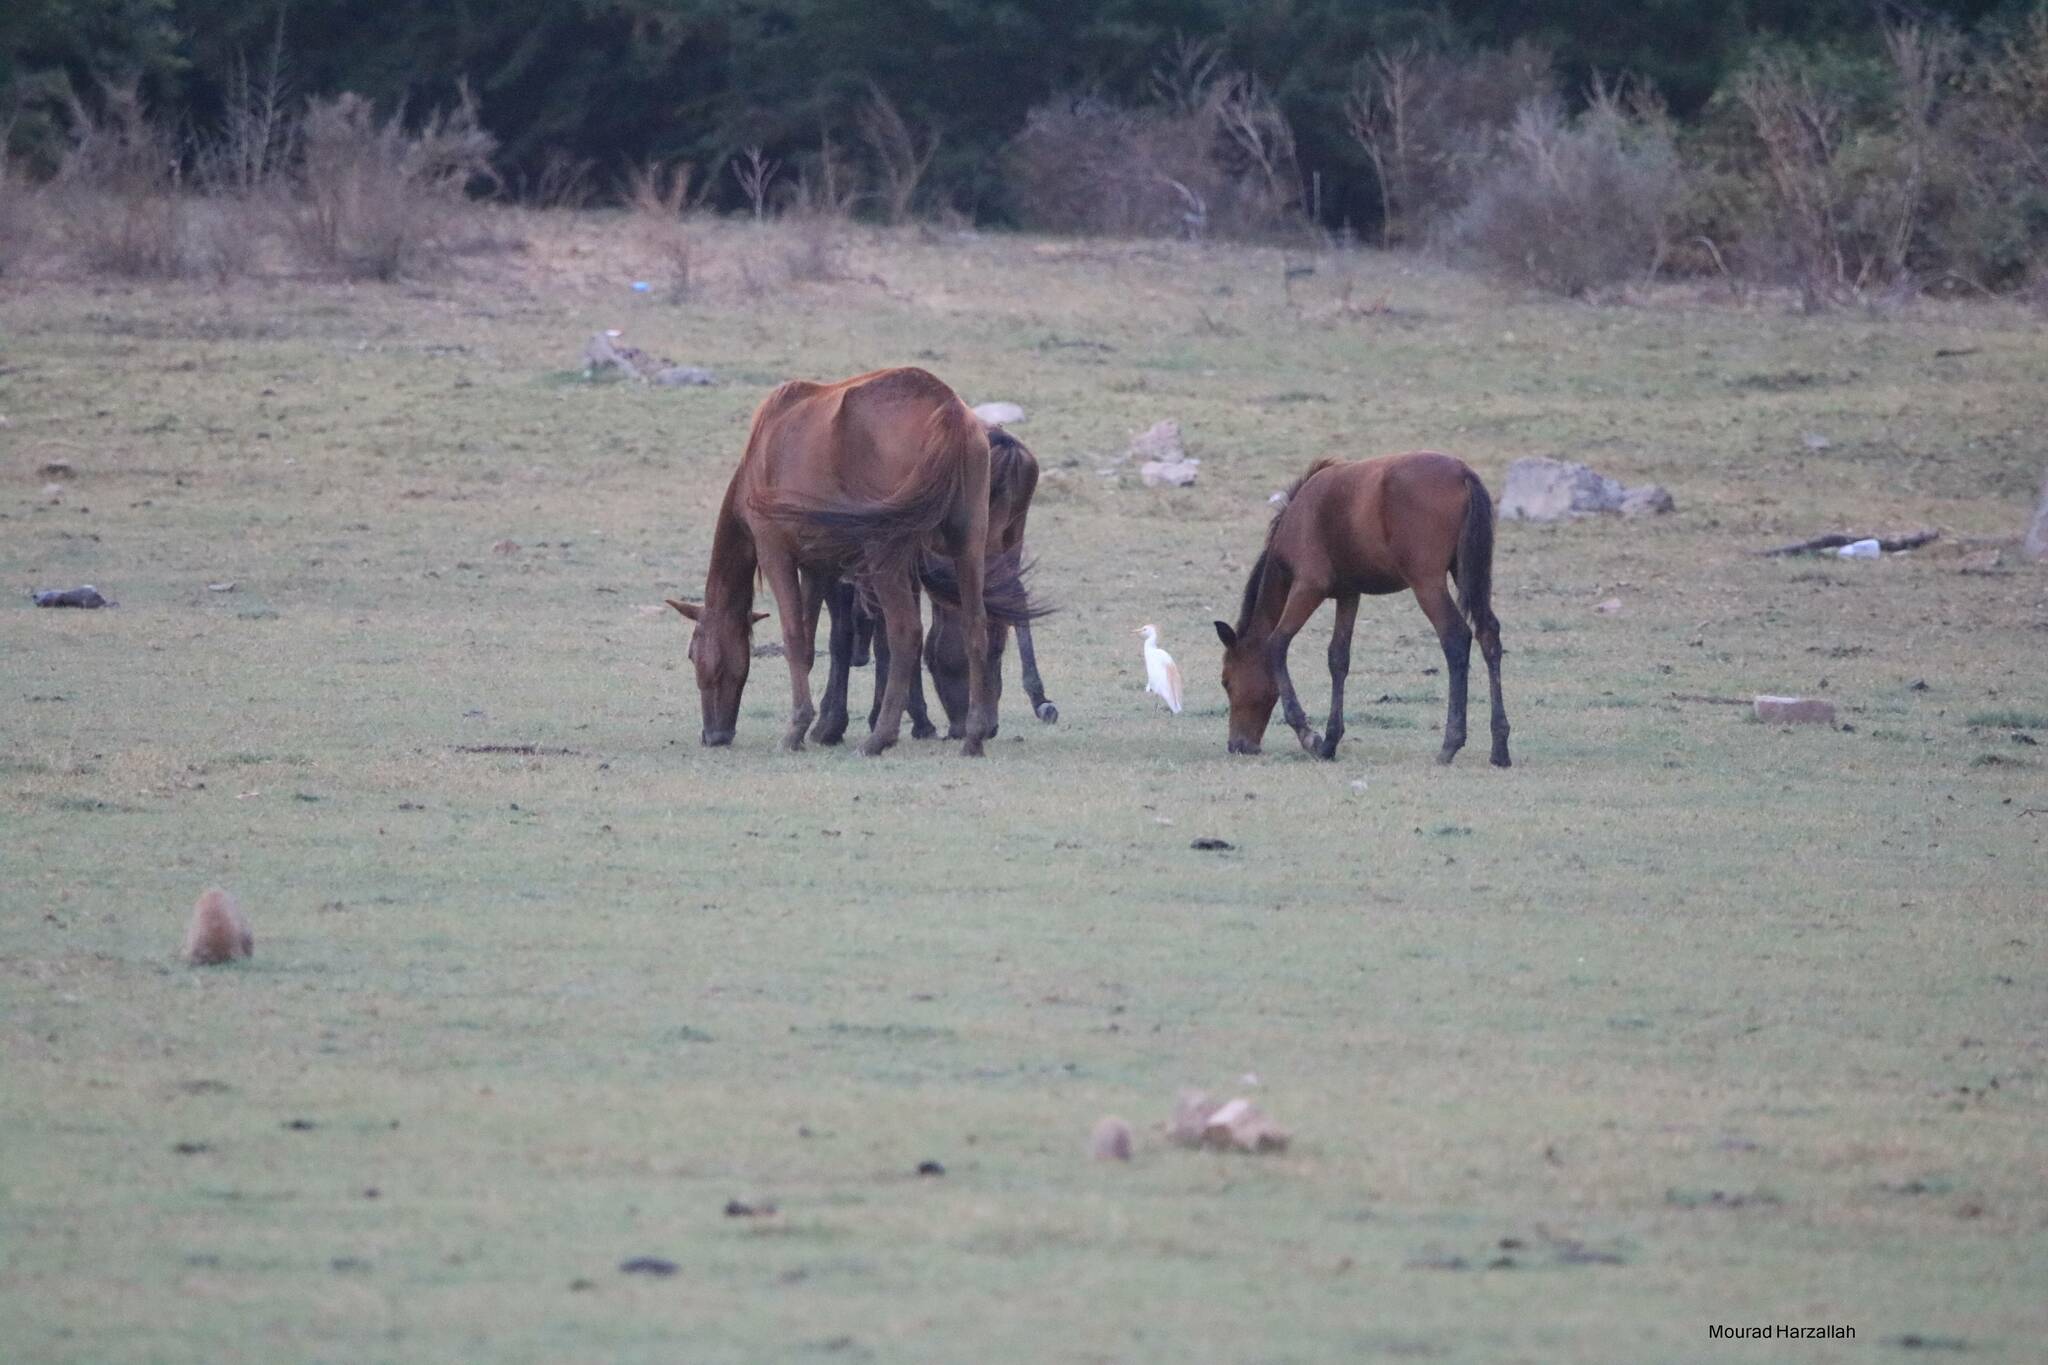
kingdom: Animalia
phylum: Chordata
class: Mammalia
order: Perissodactyla
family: Equidae
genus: Equus
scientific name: Equus caballus
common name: Horse
